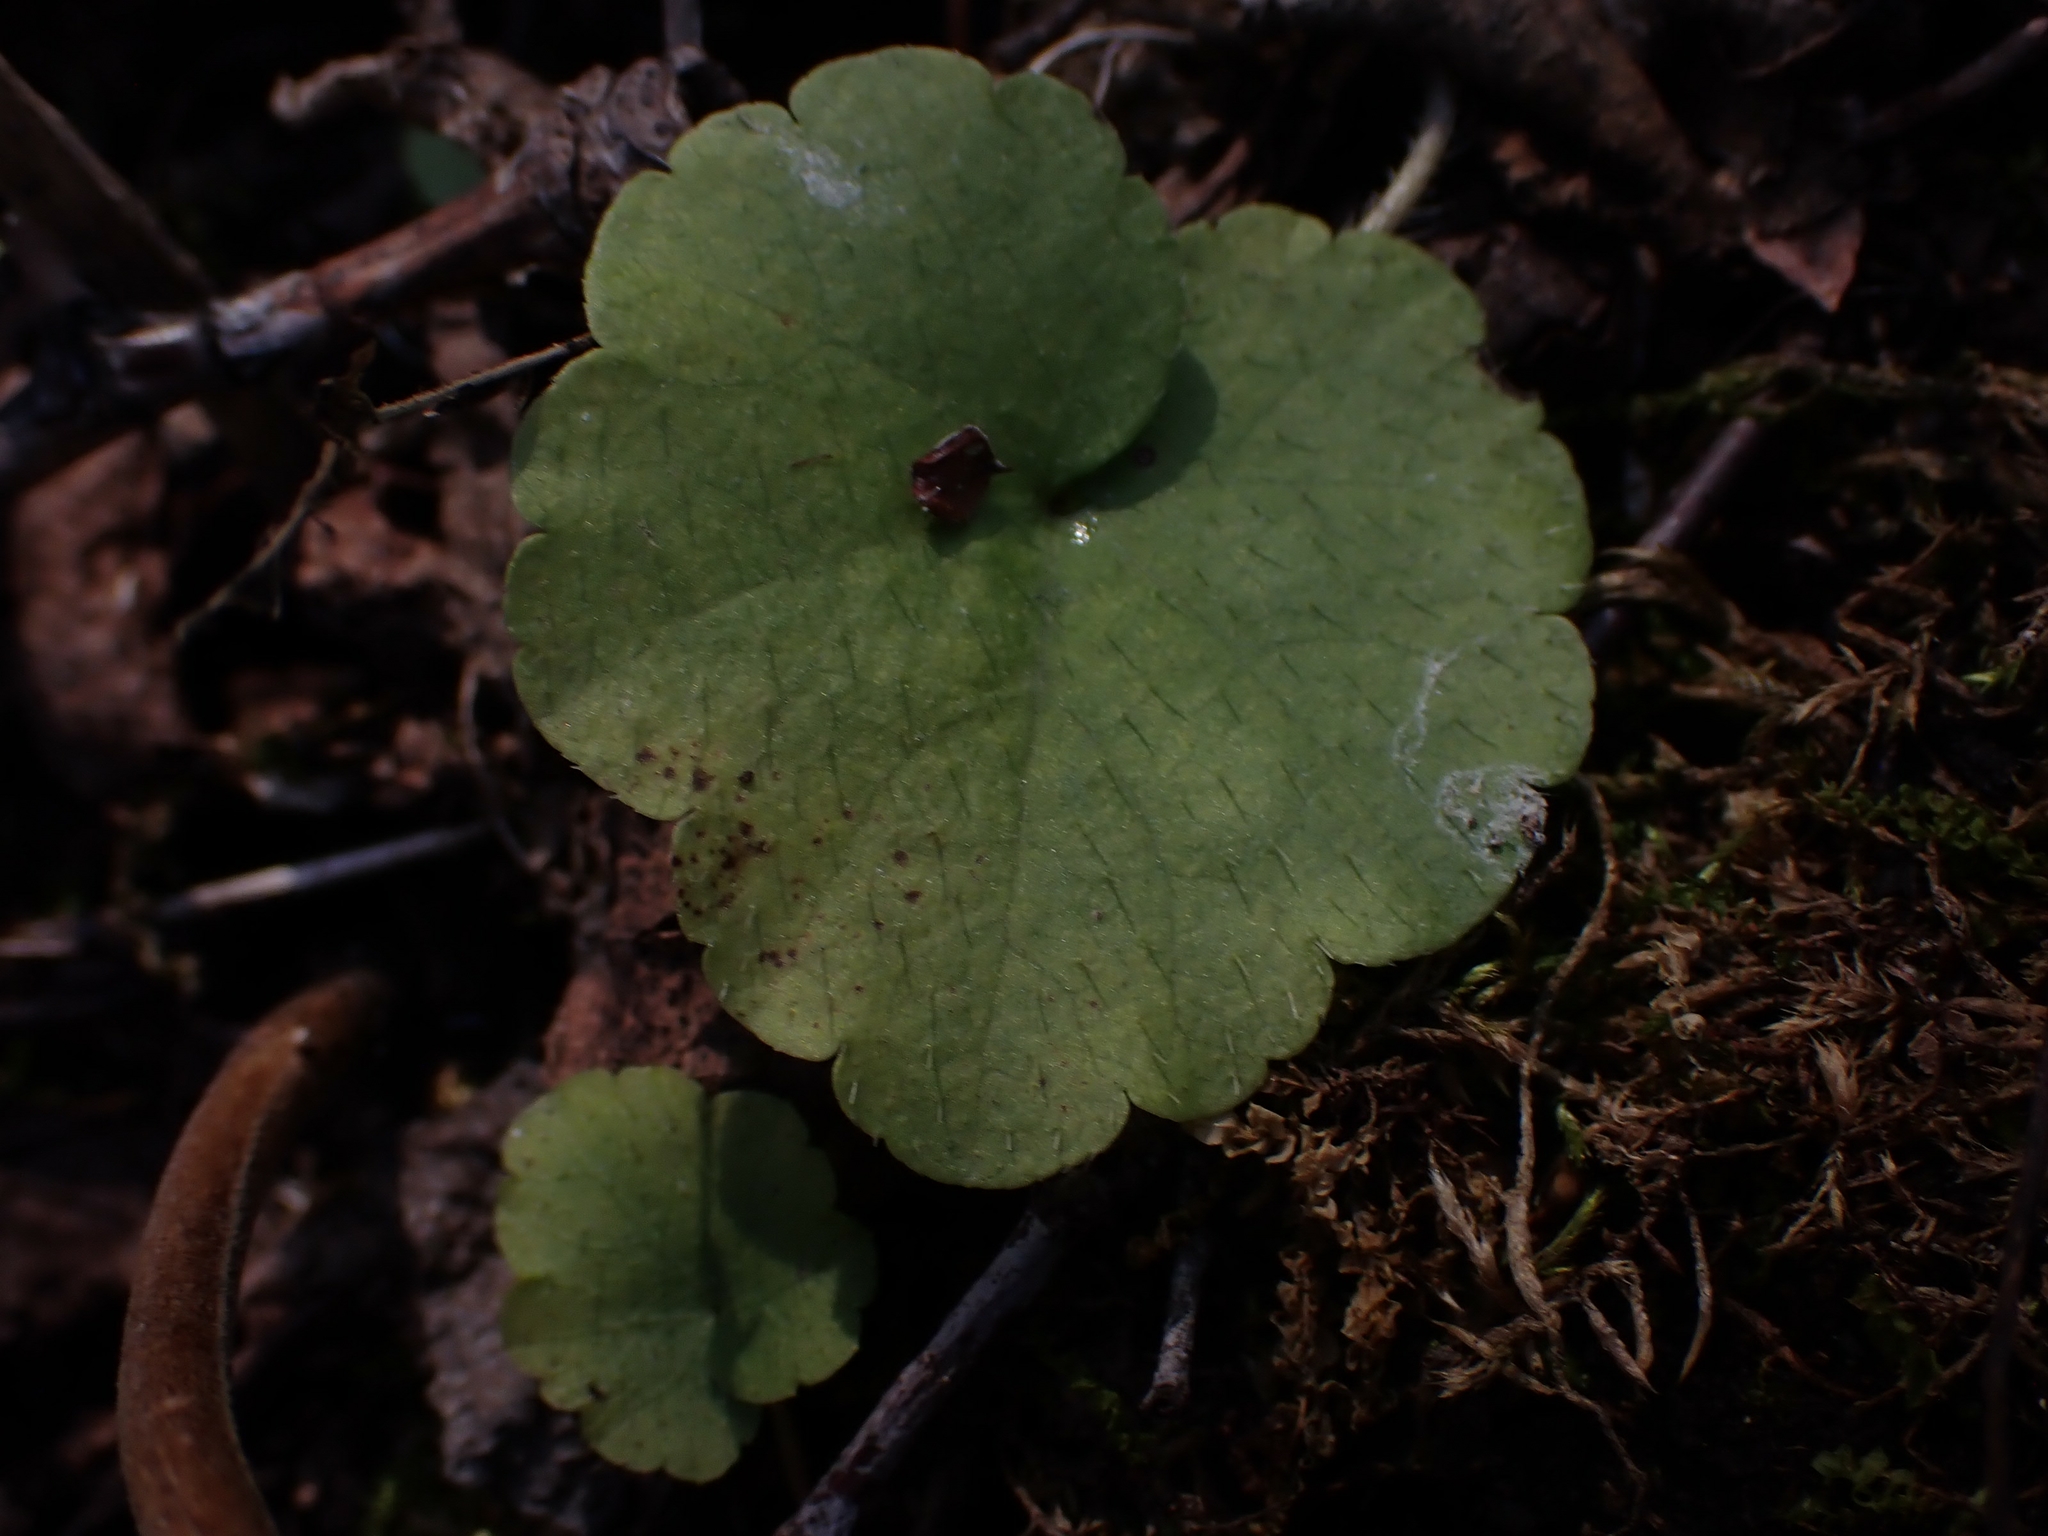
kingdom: Plantae
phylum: Tracheophyta
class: Magnoliopsida
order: Saxifragales
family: Saxifragaceae
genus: Mitella
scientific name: Mitella nuda
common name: Bare-stemmed bishop's-cap
